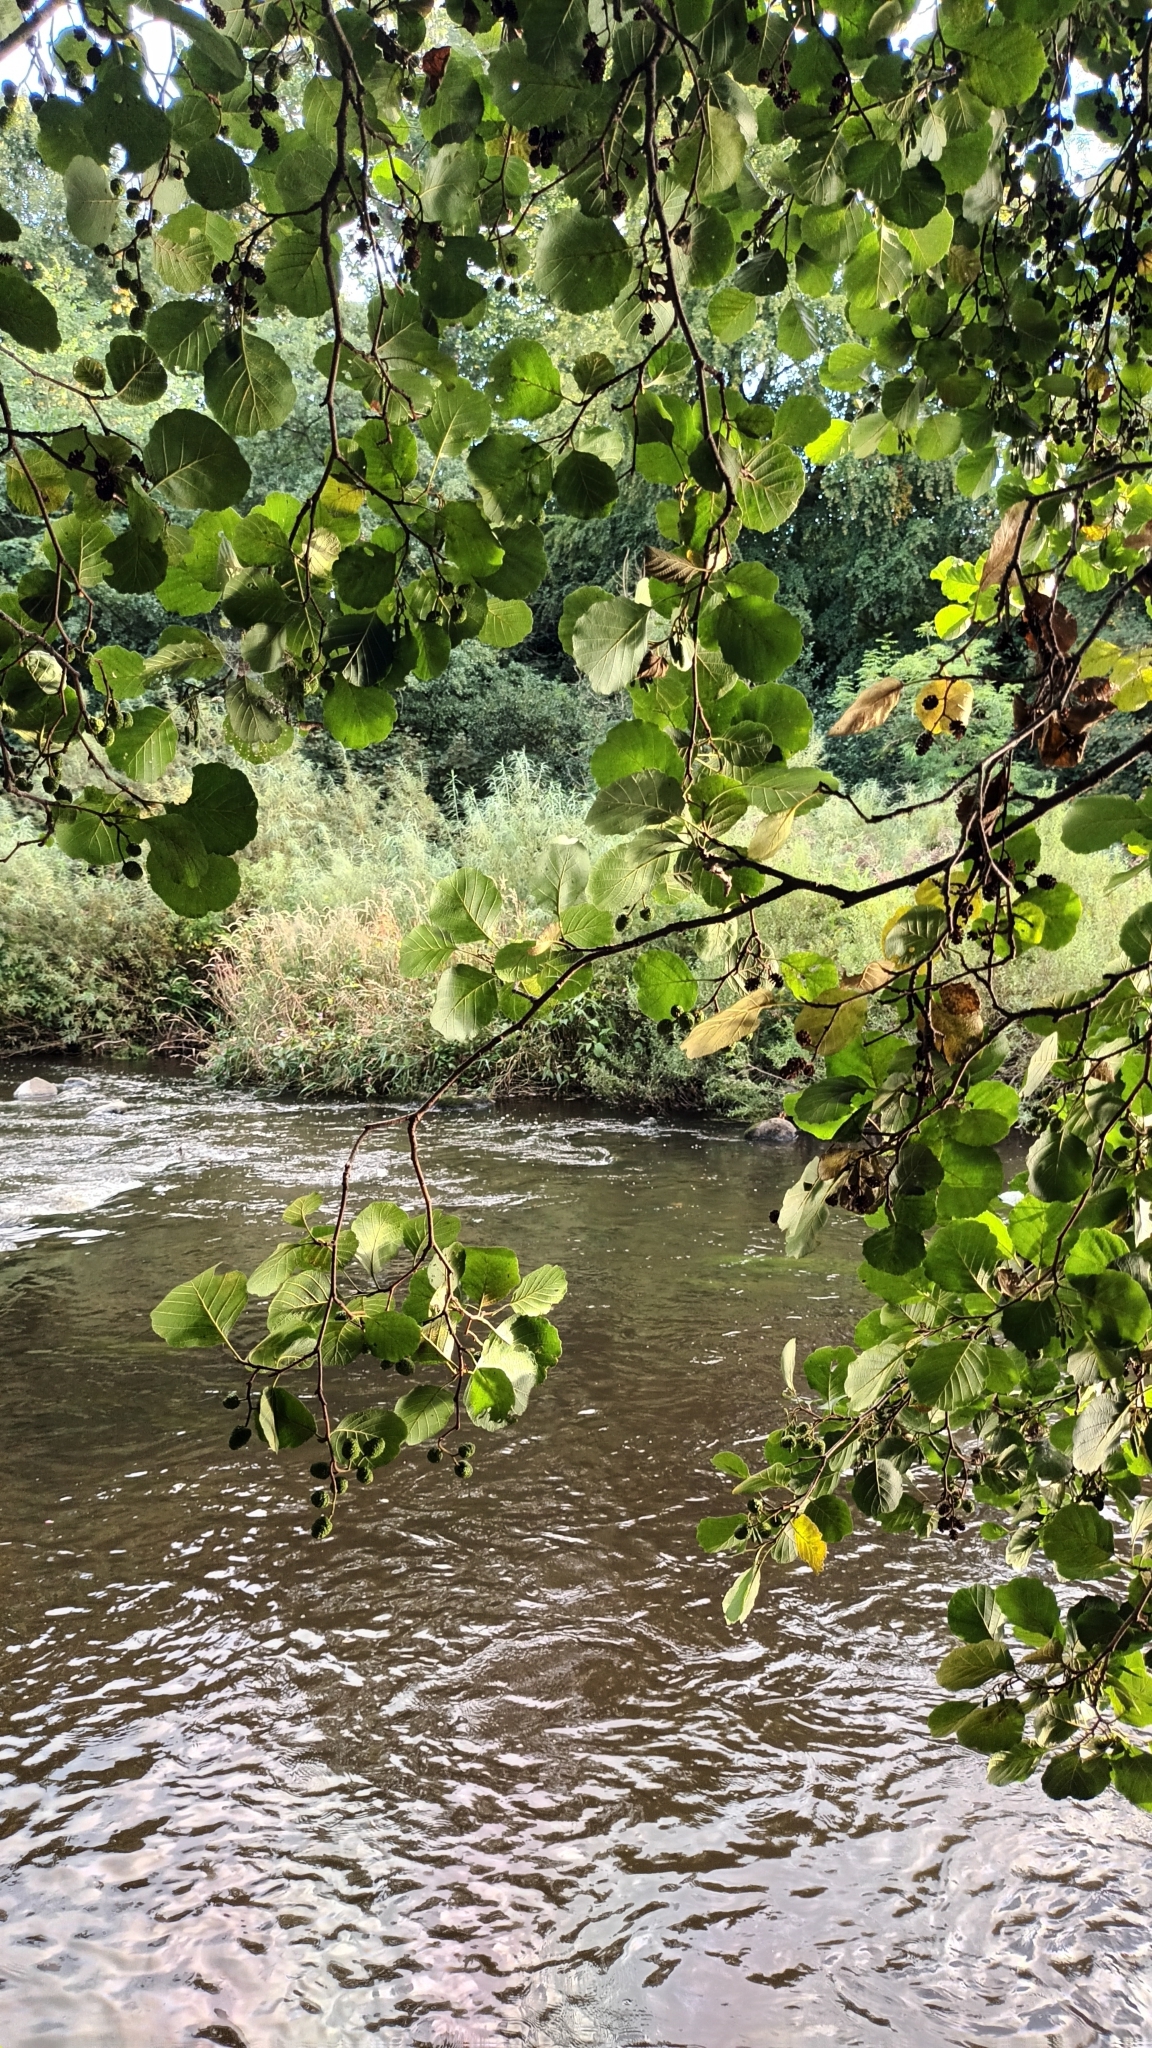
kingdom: Plantae
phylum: Tracheophyta
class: Magnoliopsida
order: Fagales
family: Betulaceae
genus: Alnus
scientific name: Alnus glutinosa
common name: Black alder
